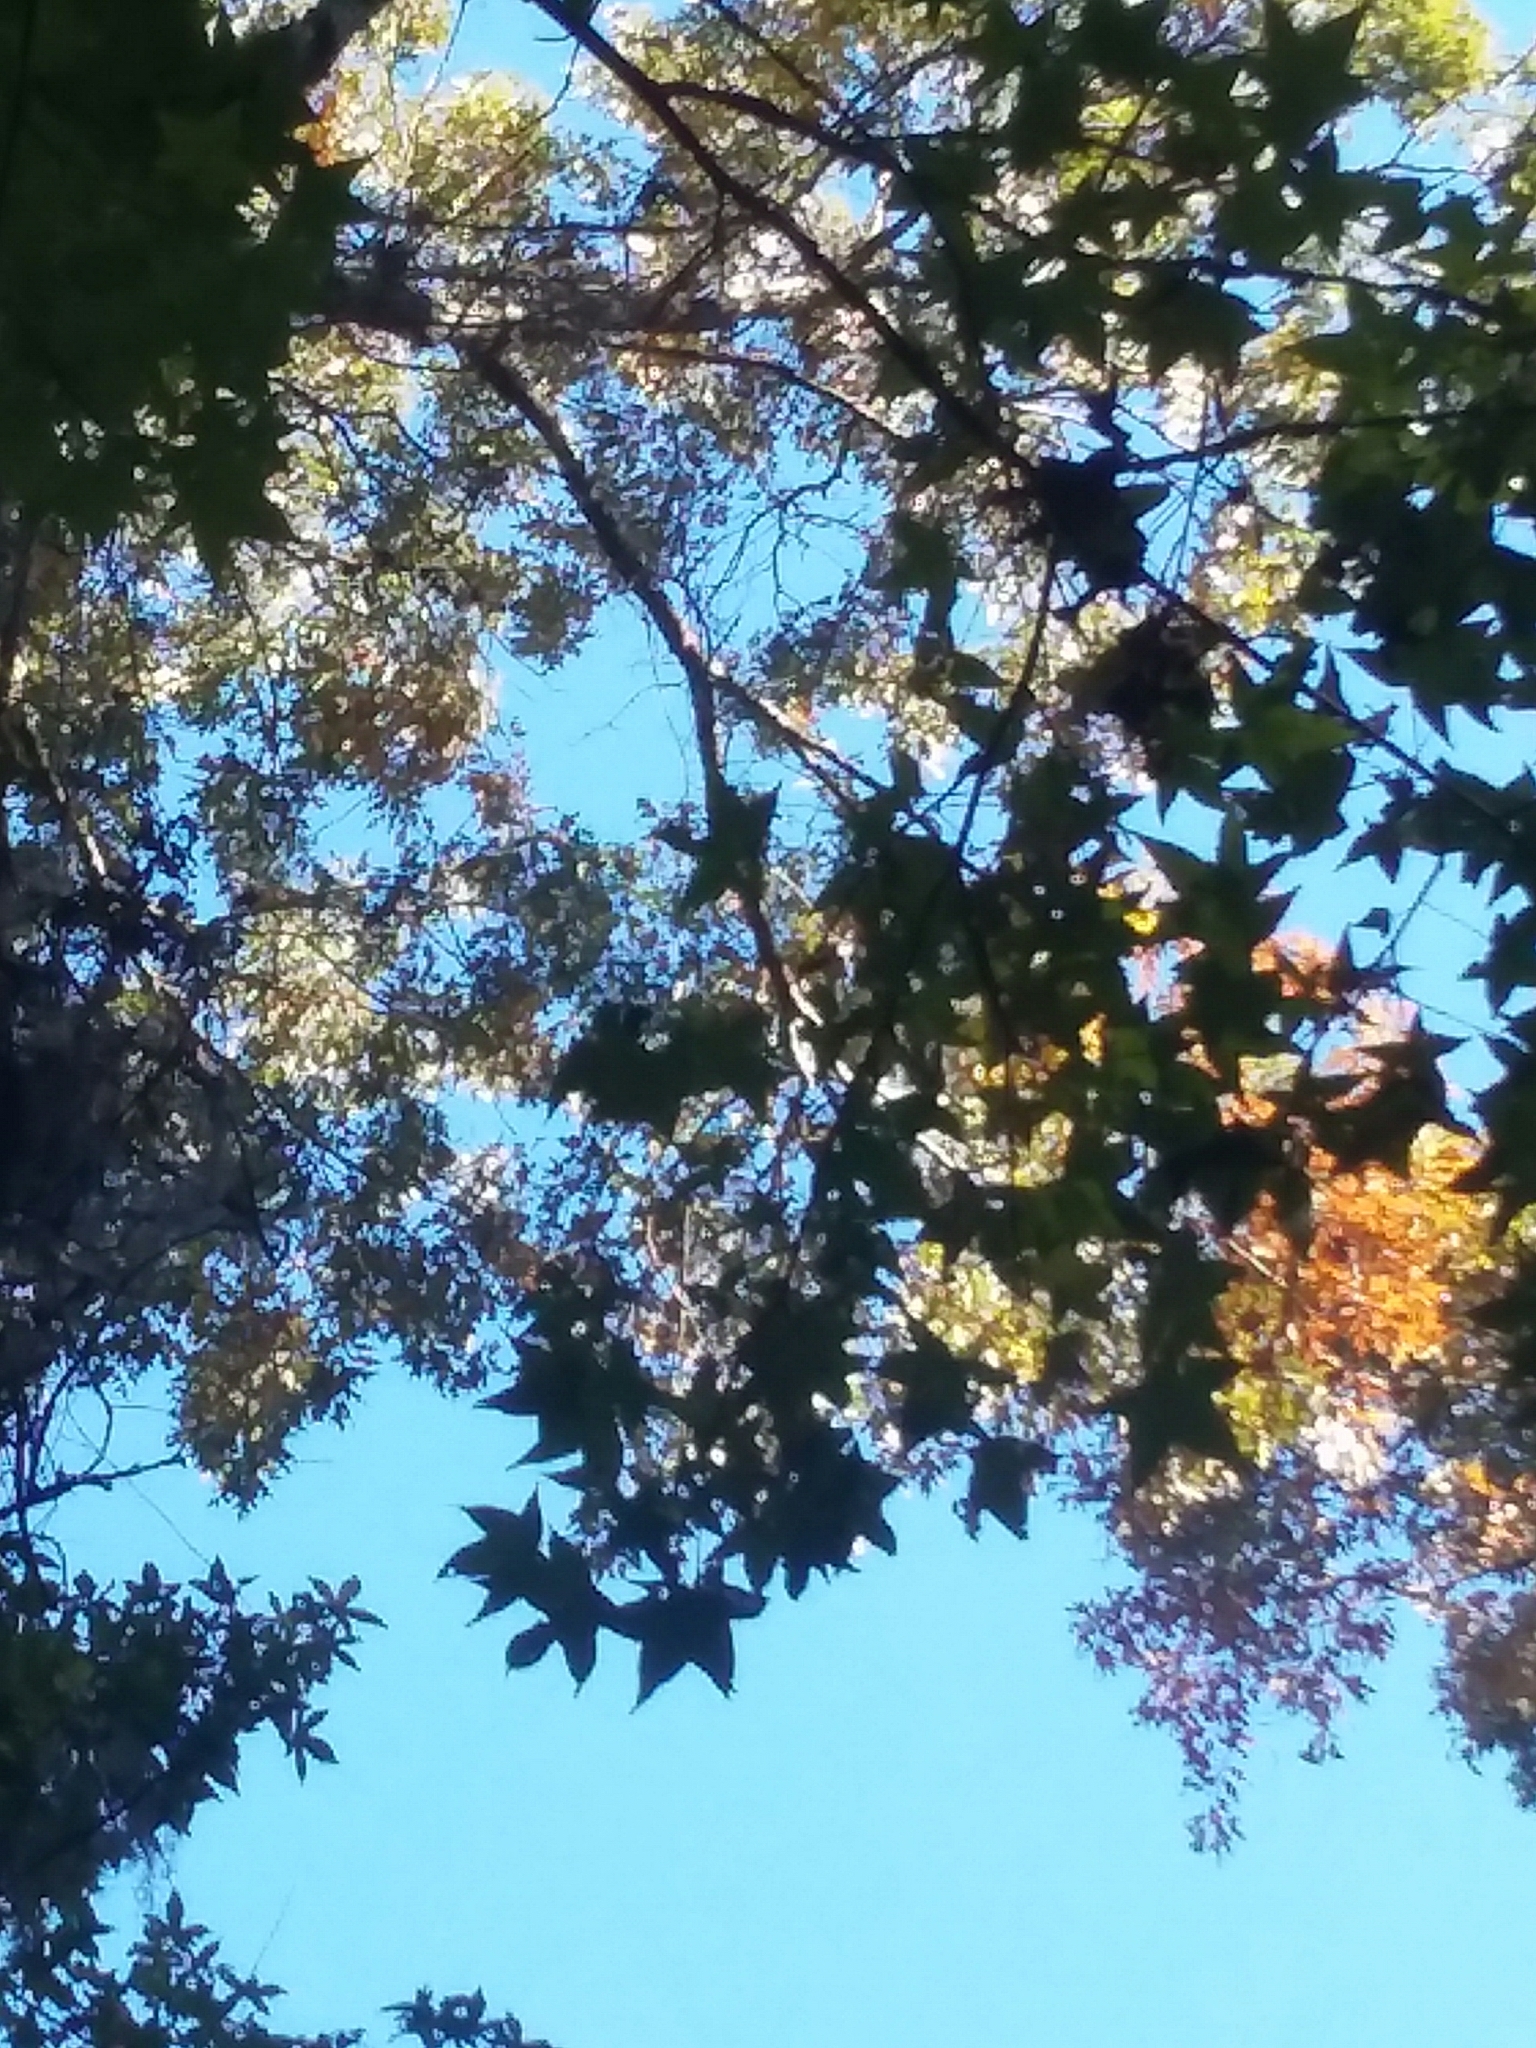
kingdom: Plantae
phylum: Tracheophyta
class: Magnoliopsida
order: Saxifragales
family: Altingiaceae
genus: Liquidambar
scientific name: Liquidambar styraciflua
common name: Sweet gum
